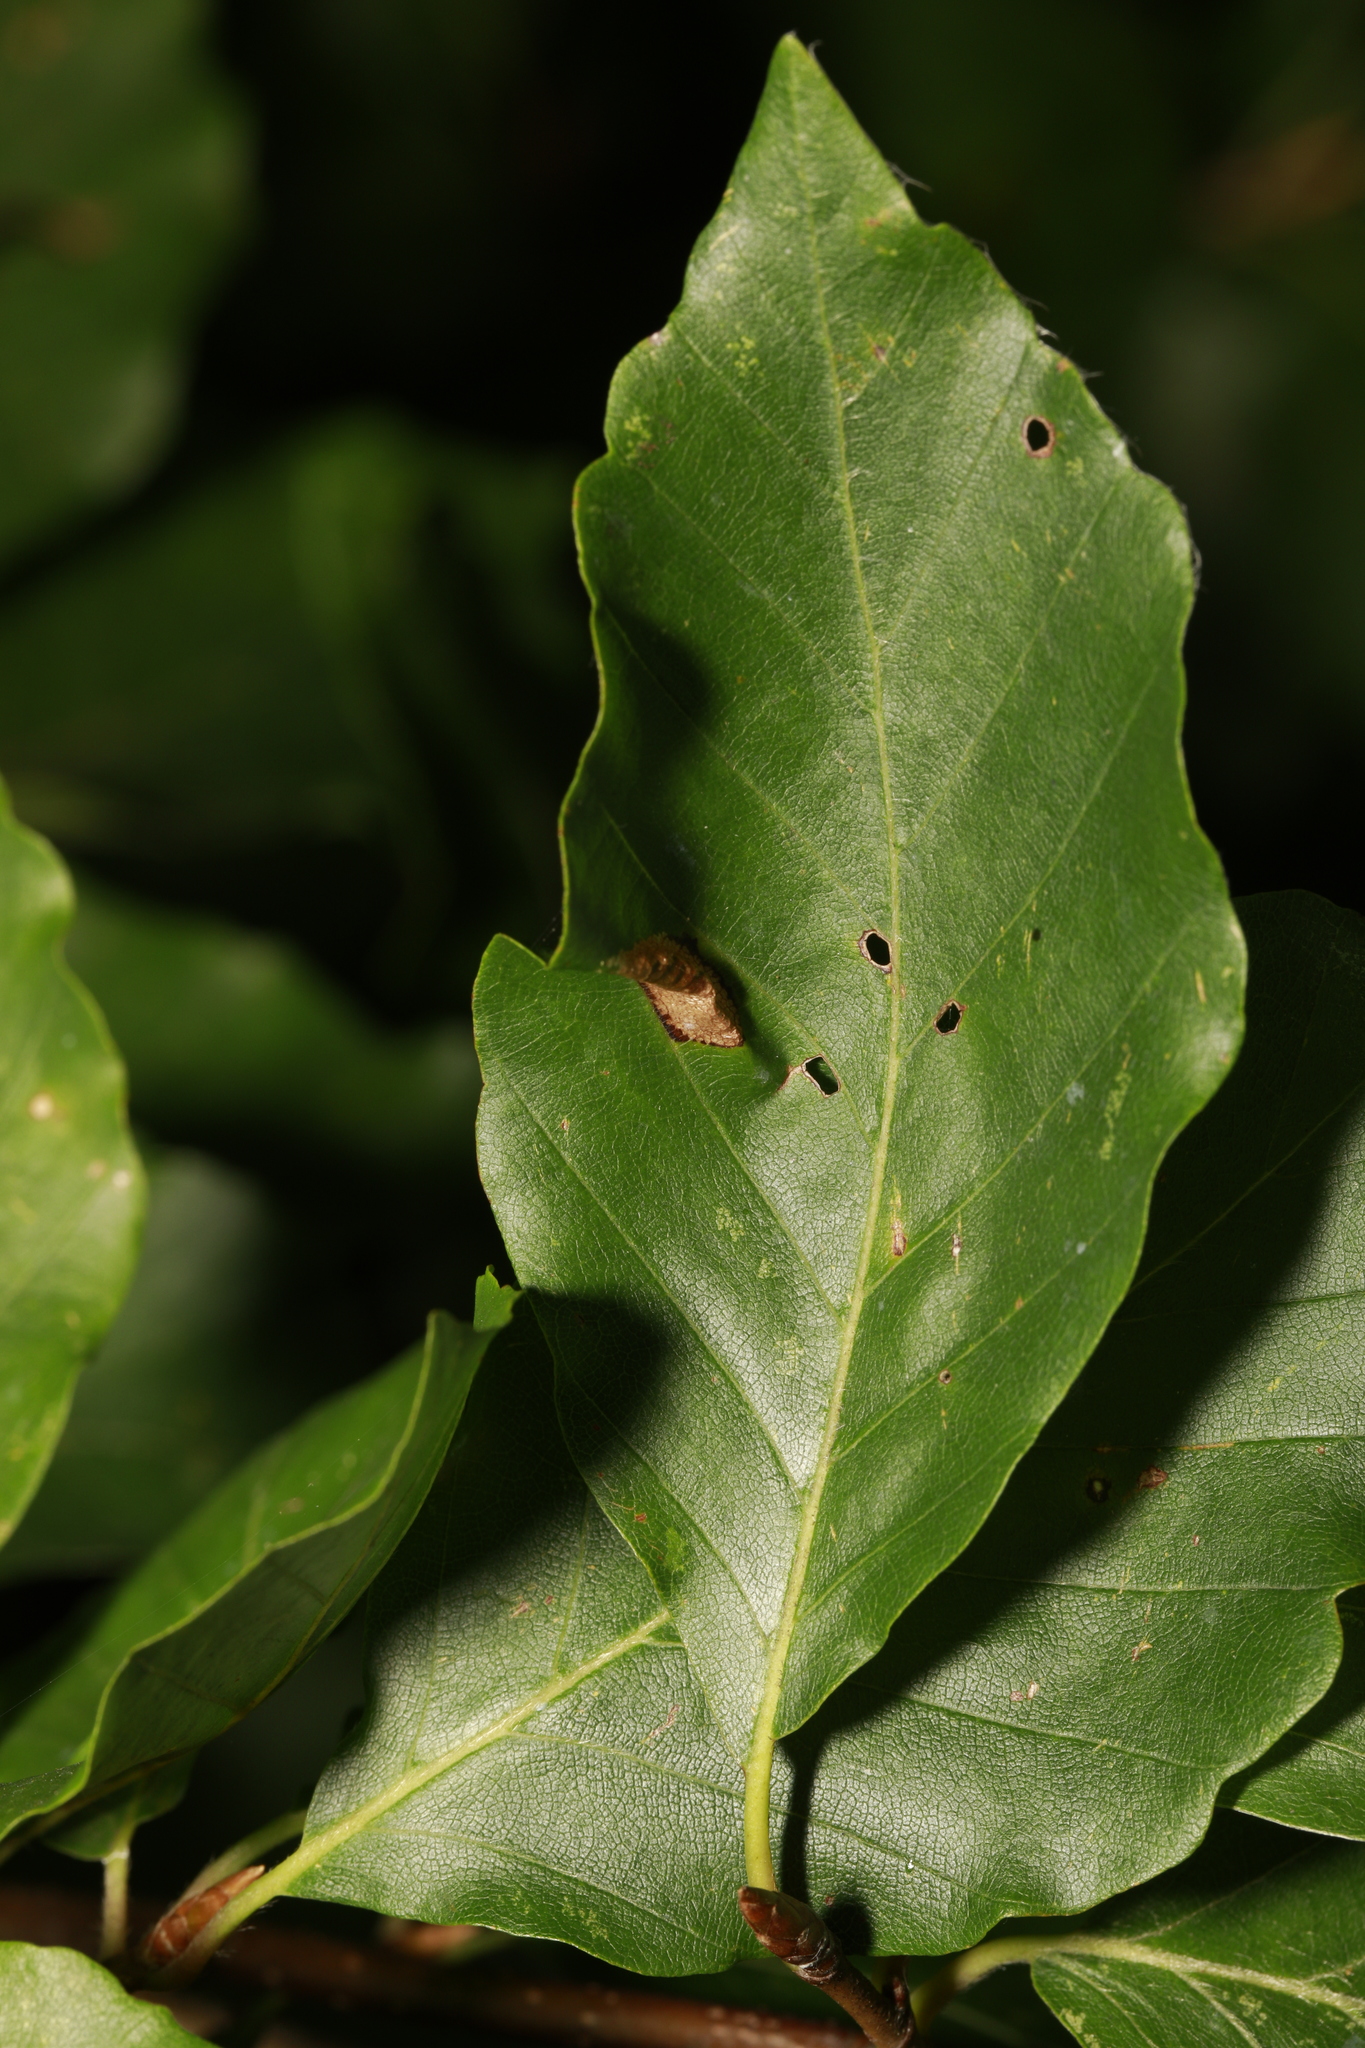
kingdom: Plantae
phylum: Tracheophyta
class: Magnoliopsida
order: Fagales
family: Fagaceae
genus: Fagus
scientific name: Fagus sylvatica
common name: Beech
